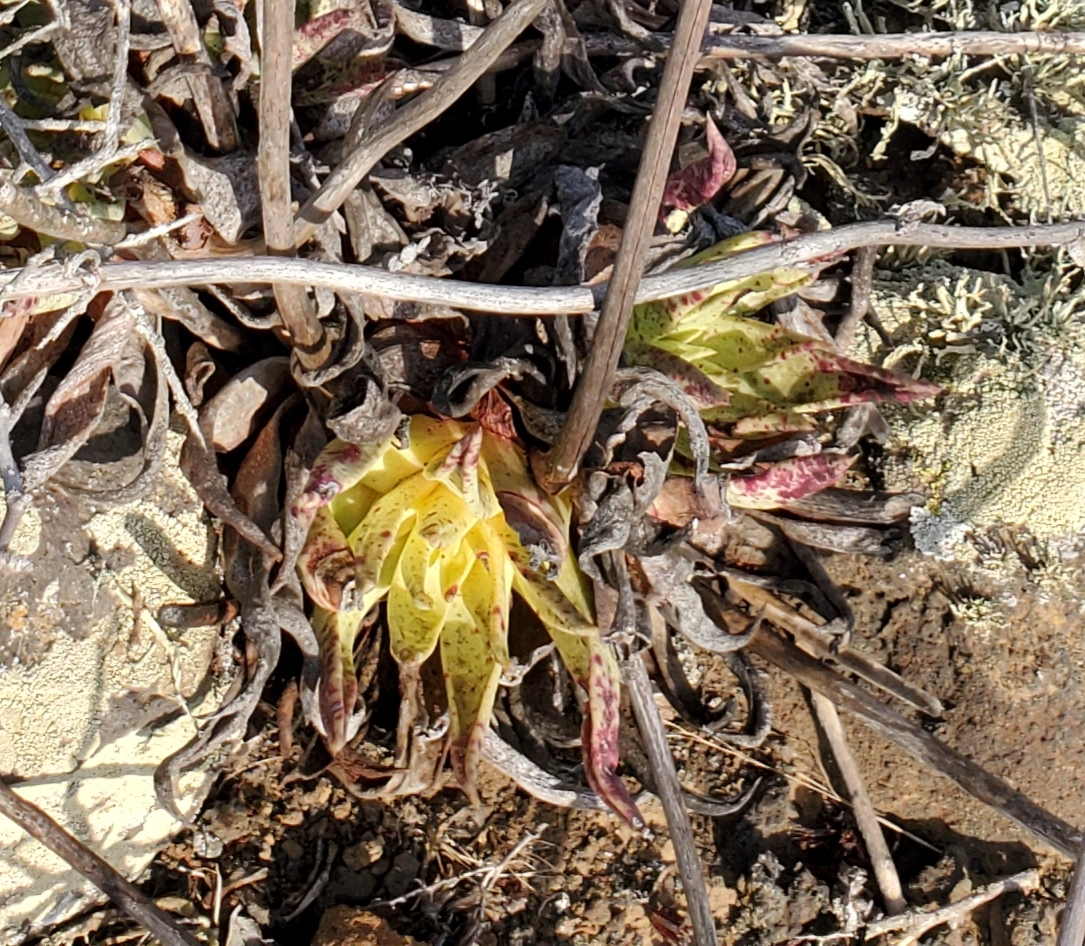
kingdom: Plantae
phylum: Tracheophyta
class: Magnoliopsida
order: Saxifragales
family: Crassulaceae
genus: Dudleya
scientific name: Dudleya cultrata
